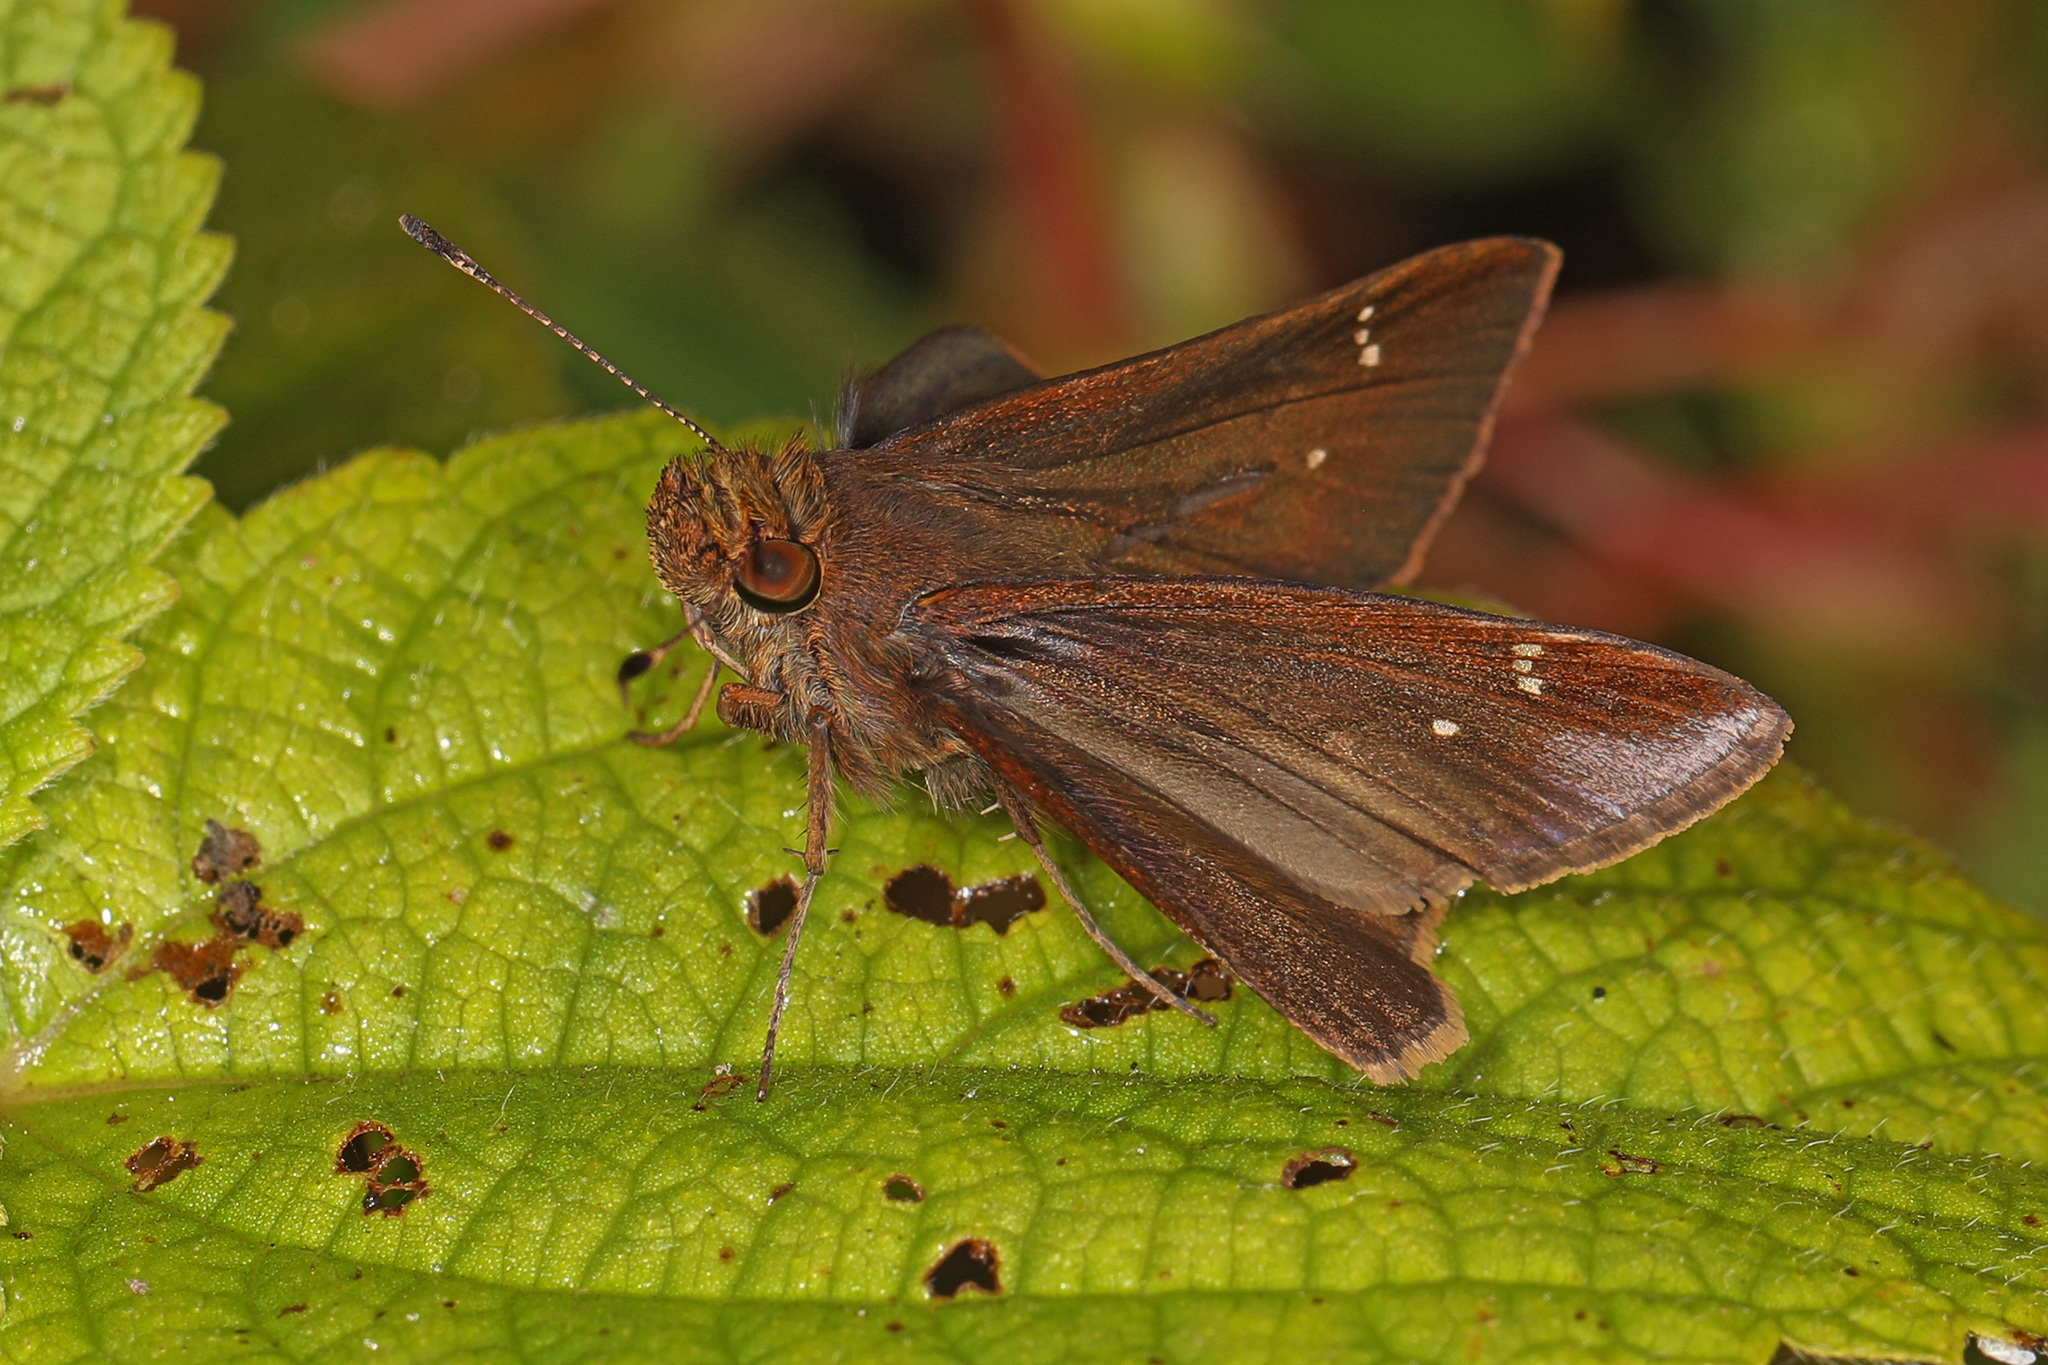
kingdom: Animalia
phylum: Arthropoda
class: Insecta
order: Lepidoptera
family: Hesperiidae
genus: Lerema
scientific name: Lerema accius
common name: Clouded skipper
